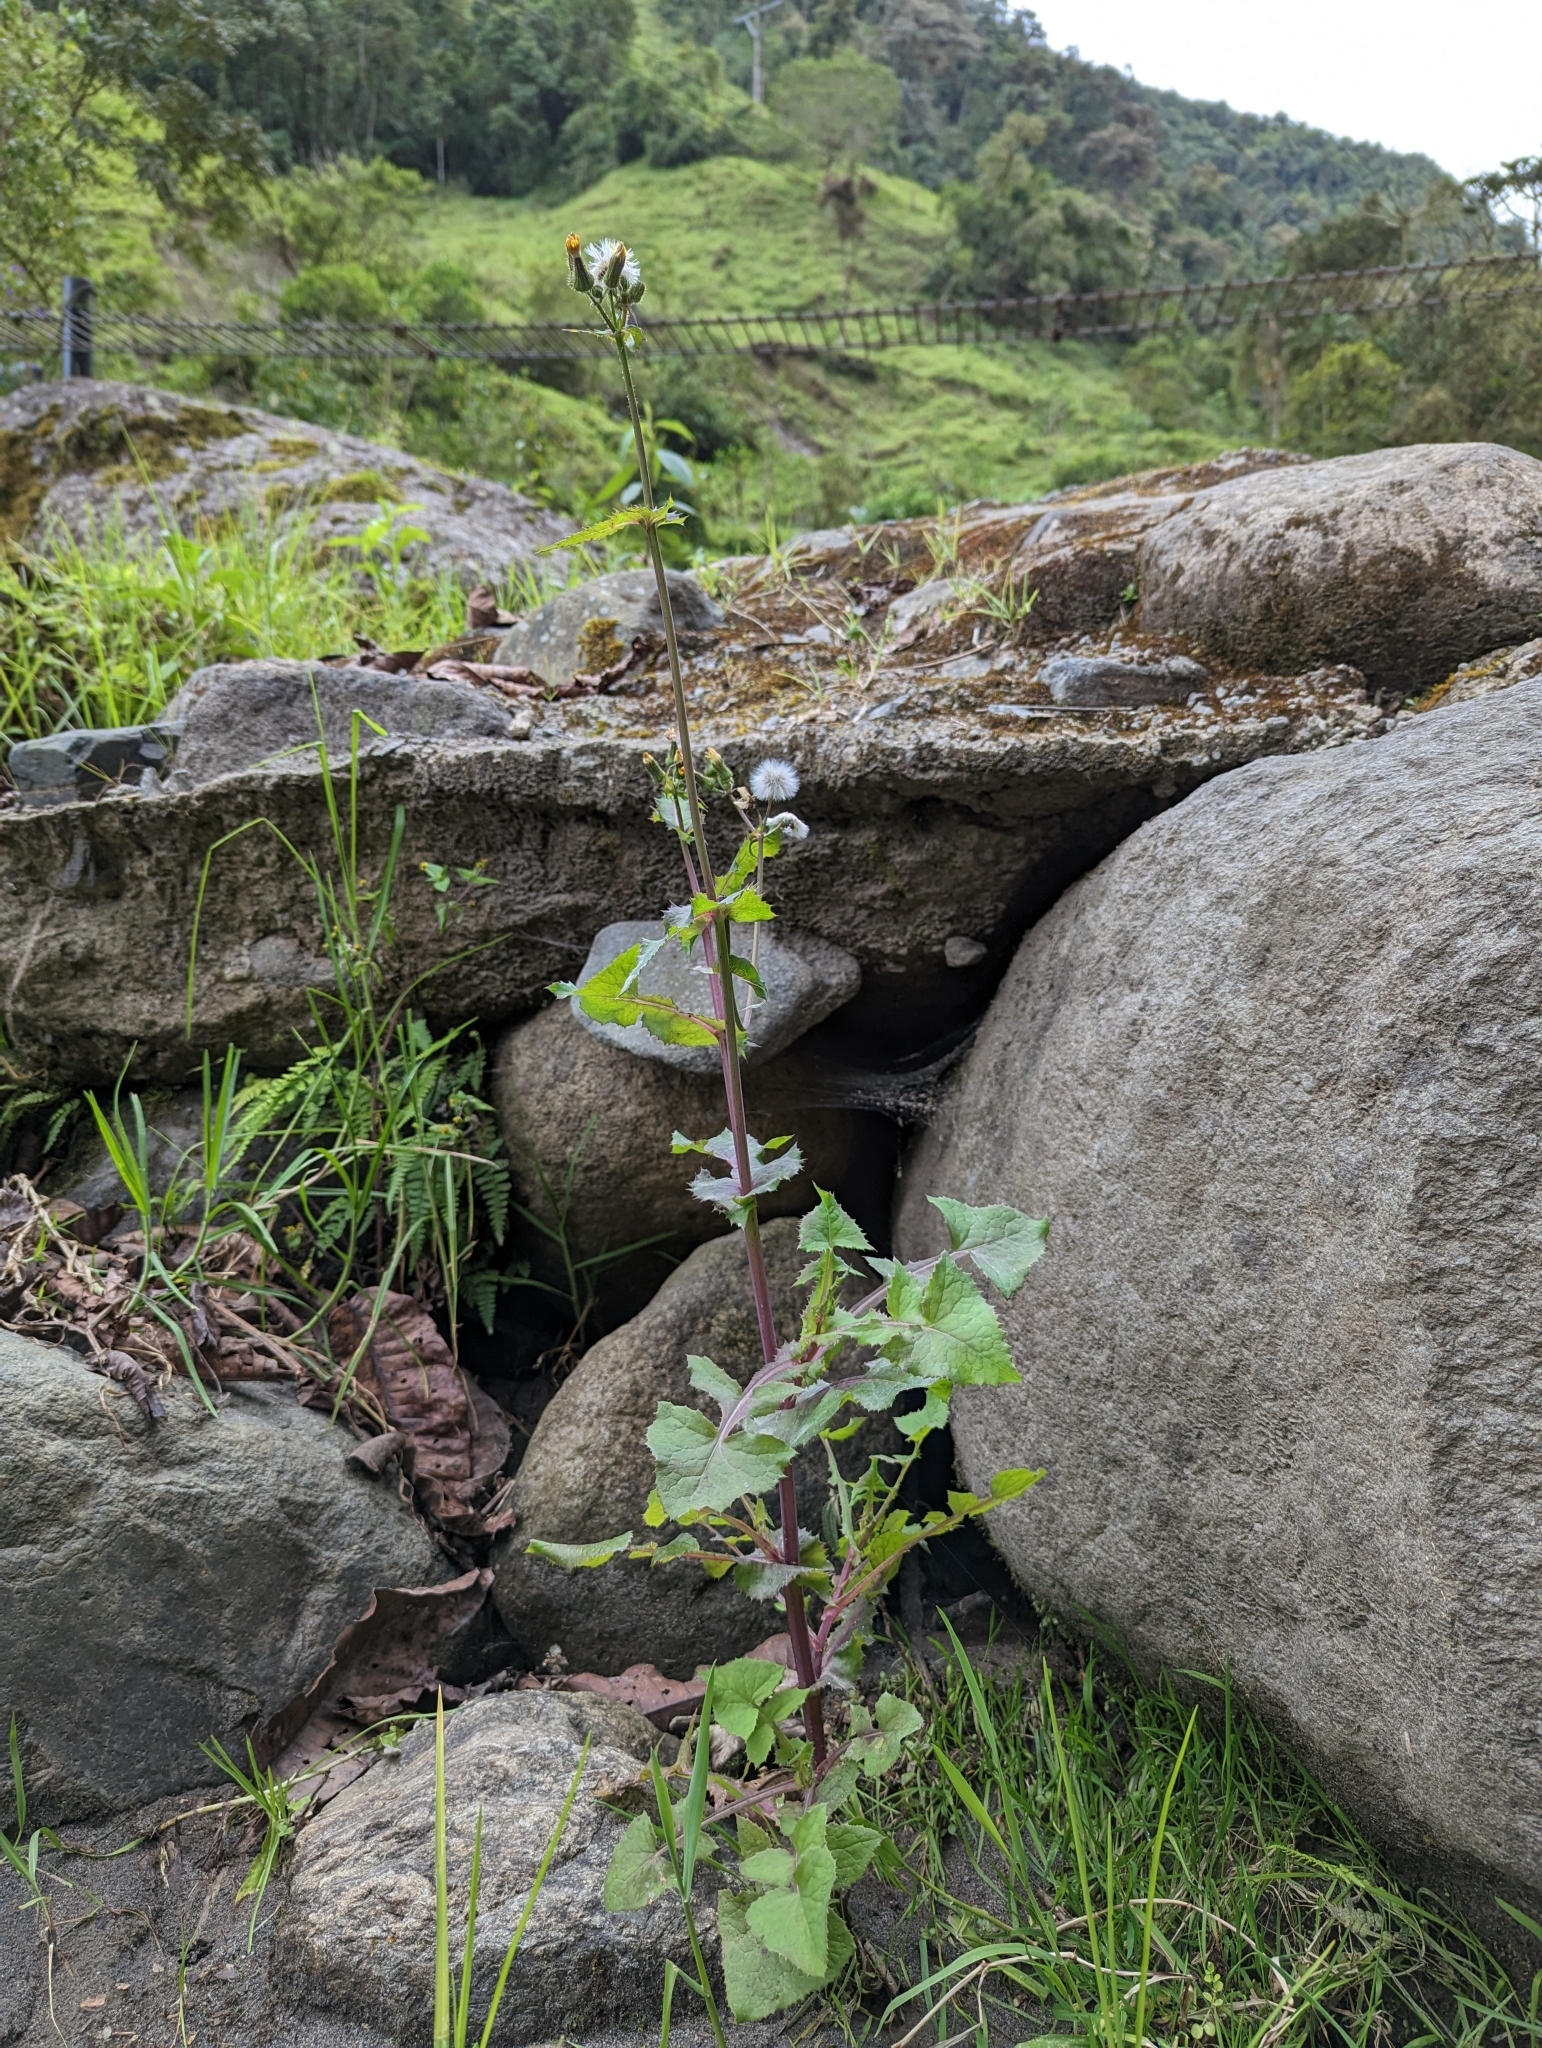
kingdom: Plantae
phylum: Tracheophyta
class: Magnoliopsida
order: Asterales
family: Asteraceae
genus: Sonchus
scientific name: Sonchus oleraceus
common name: Common sowthistle
